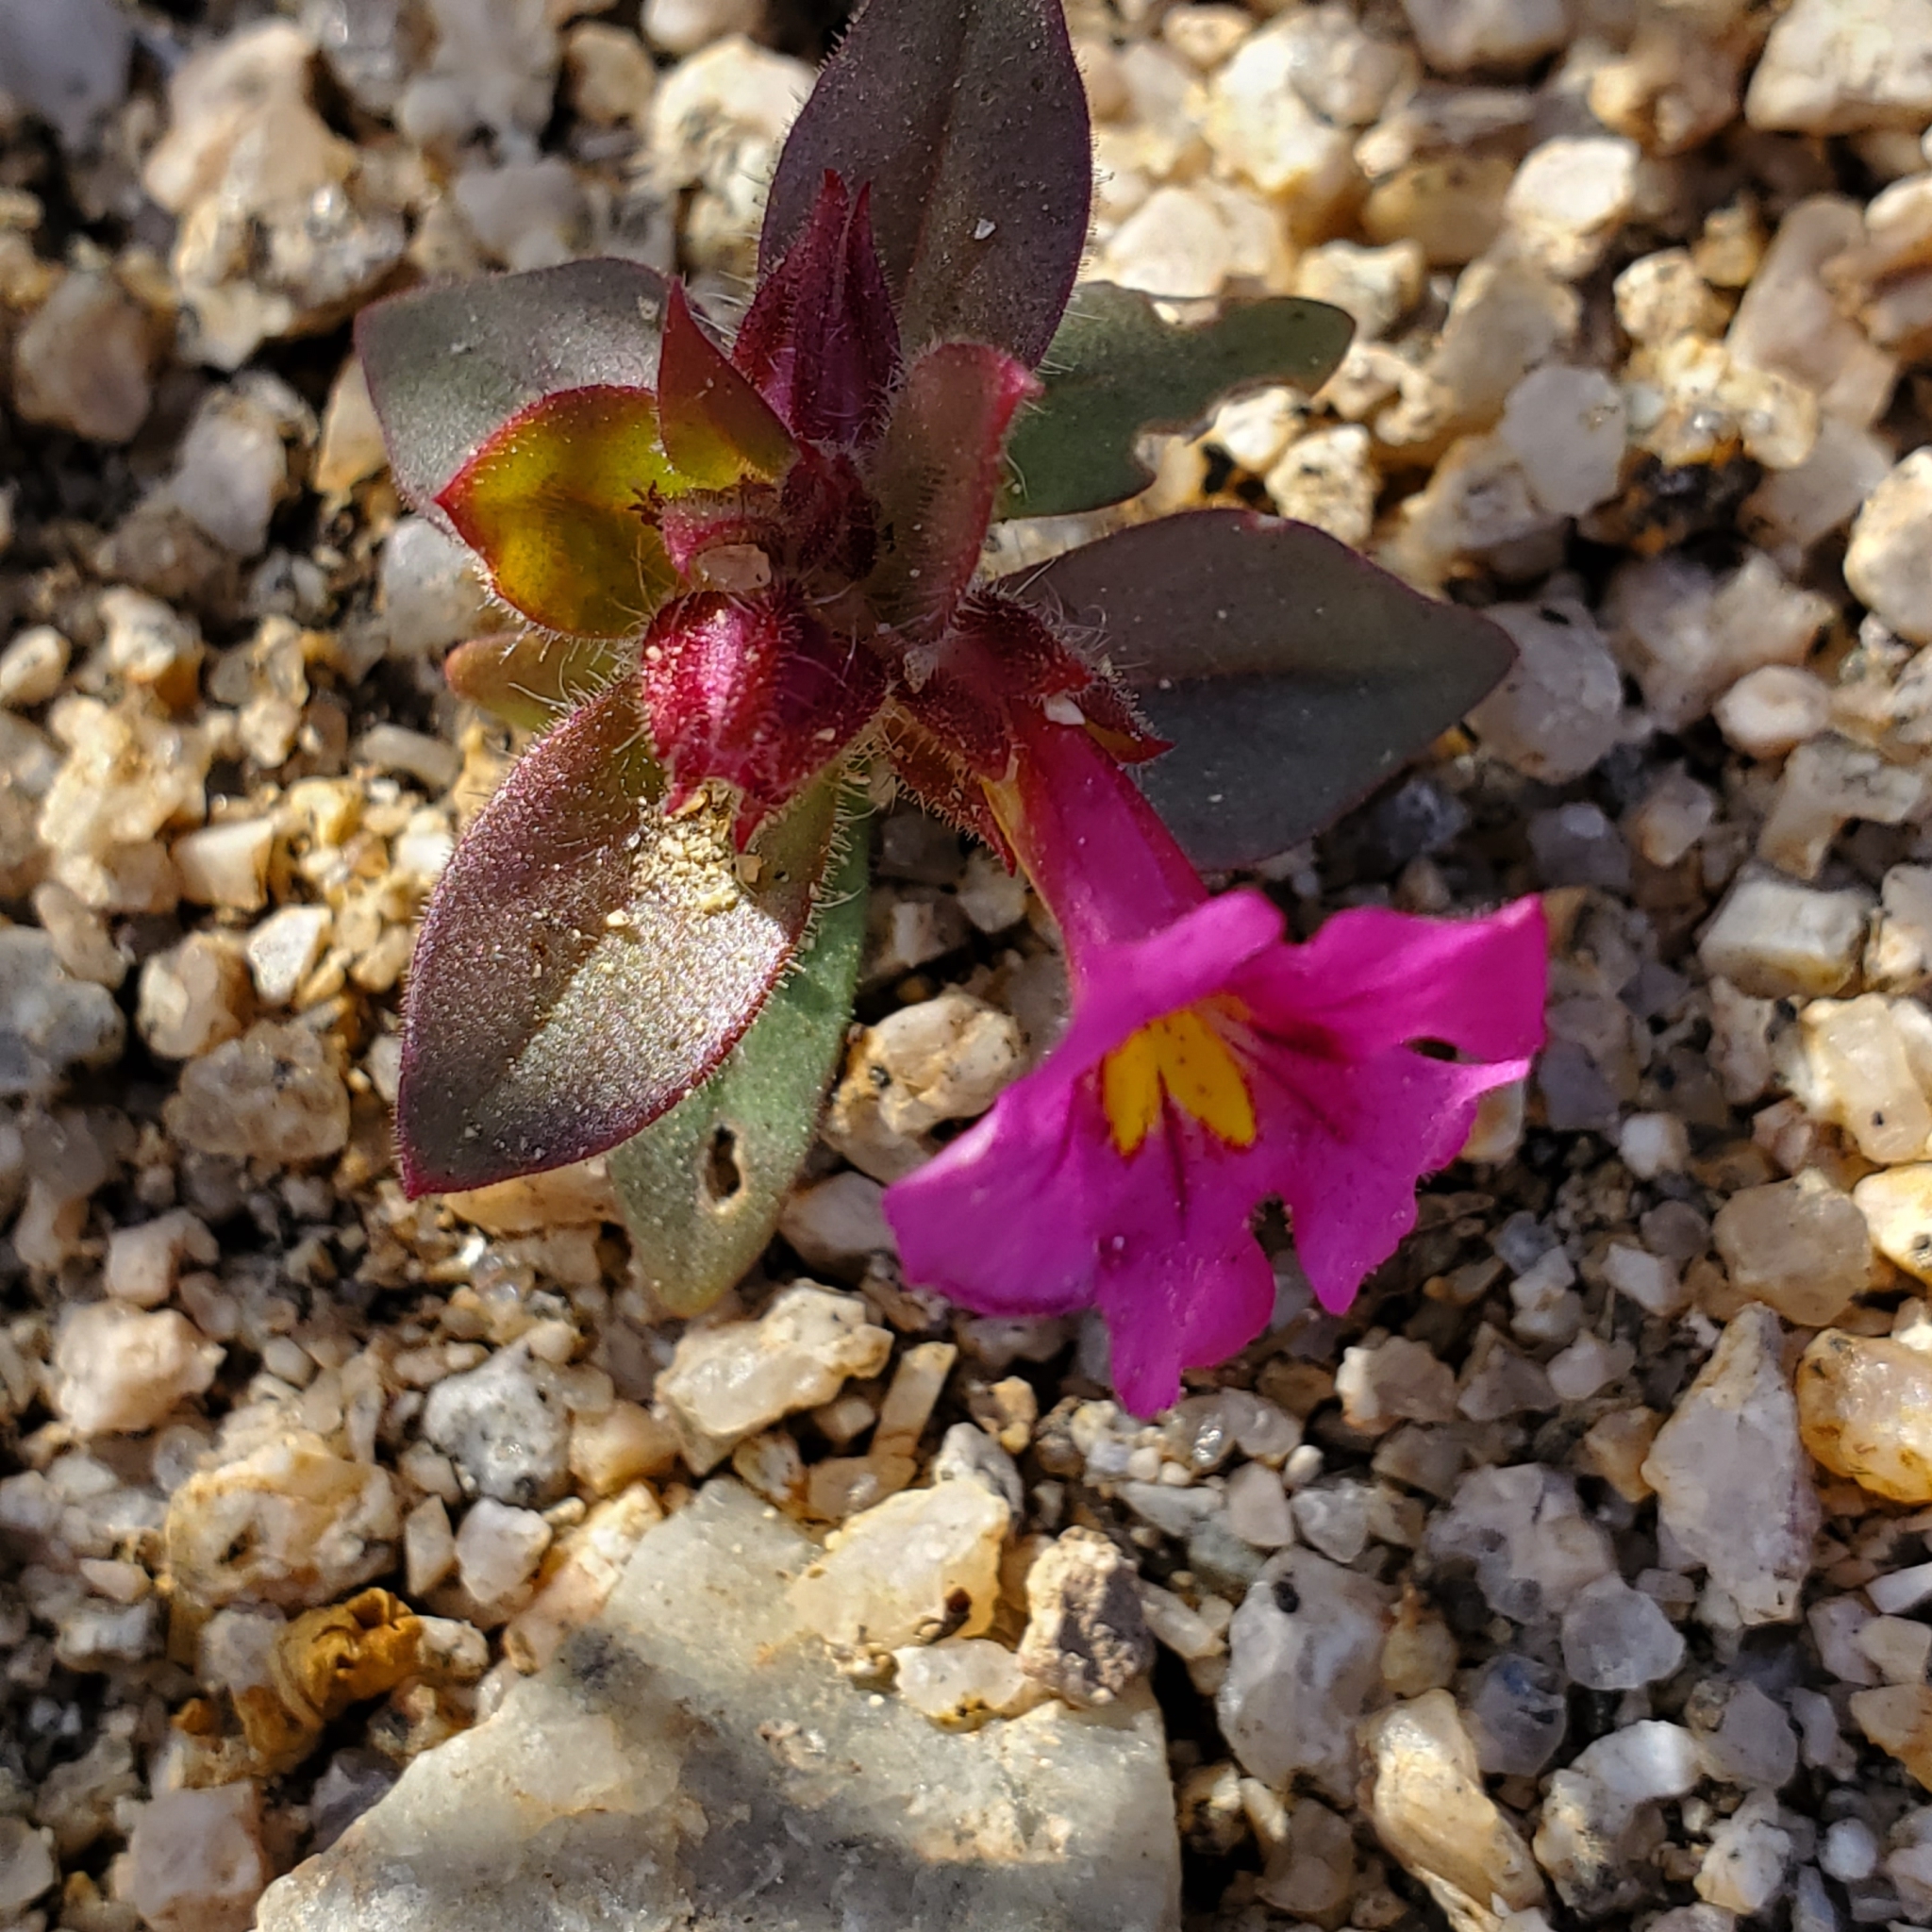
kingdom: Plantae
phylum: Tracheophyta
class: Magnoliopsida
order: Lamiales
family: Phrymaceae
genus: Diplacus
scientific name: Diplacus bigelovii
